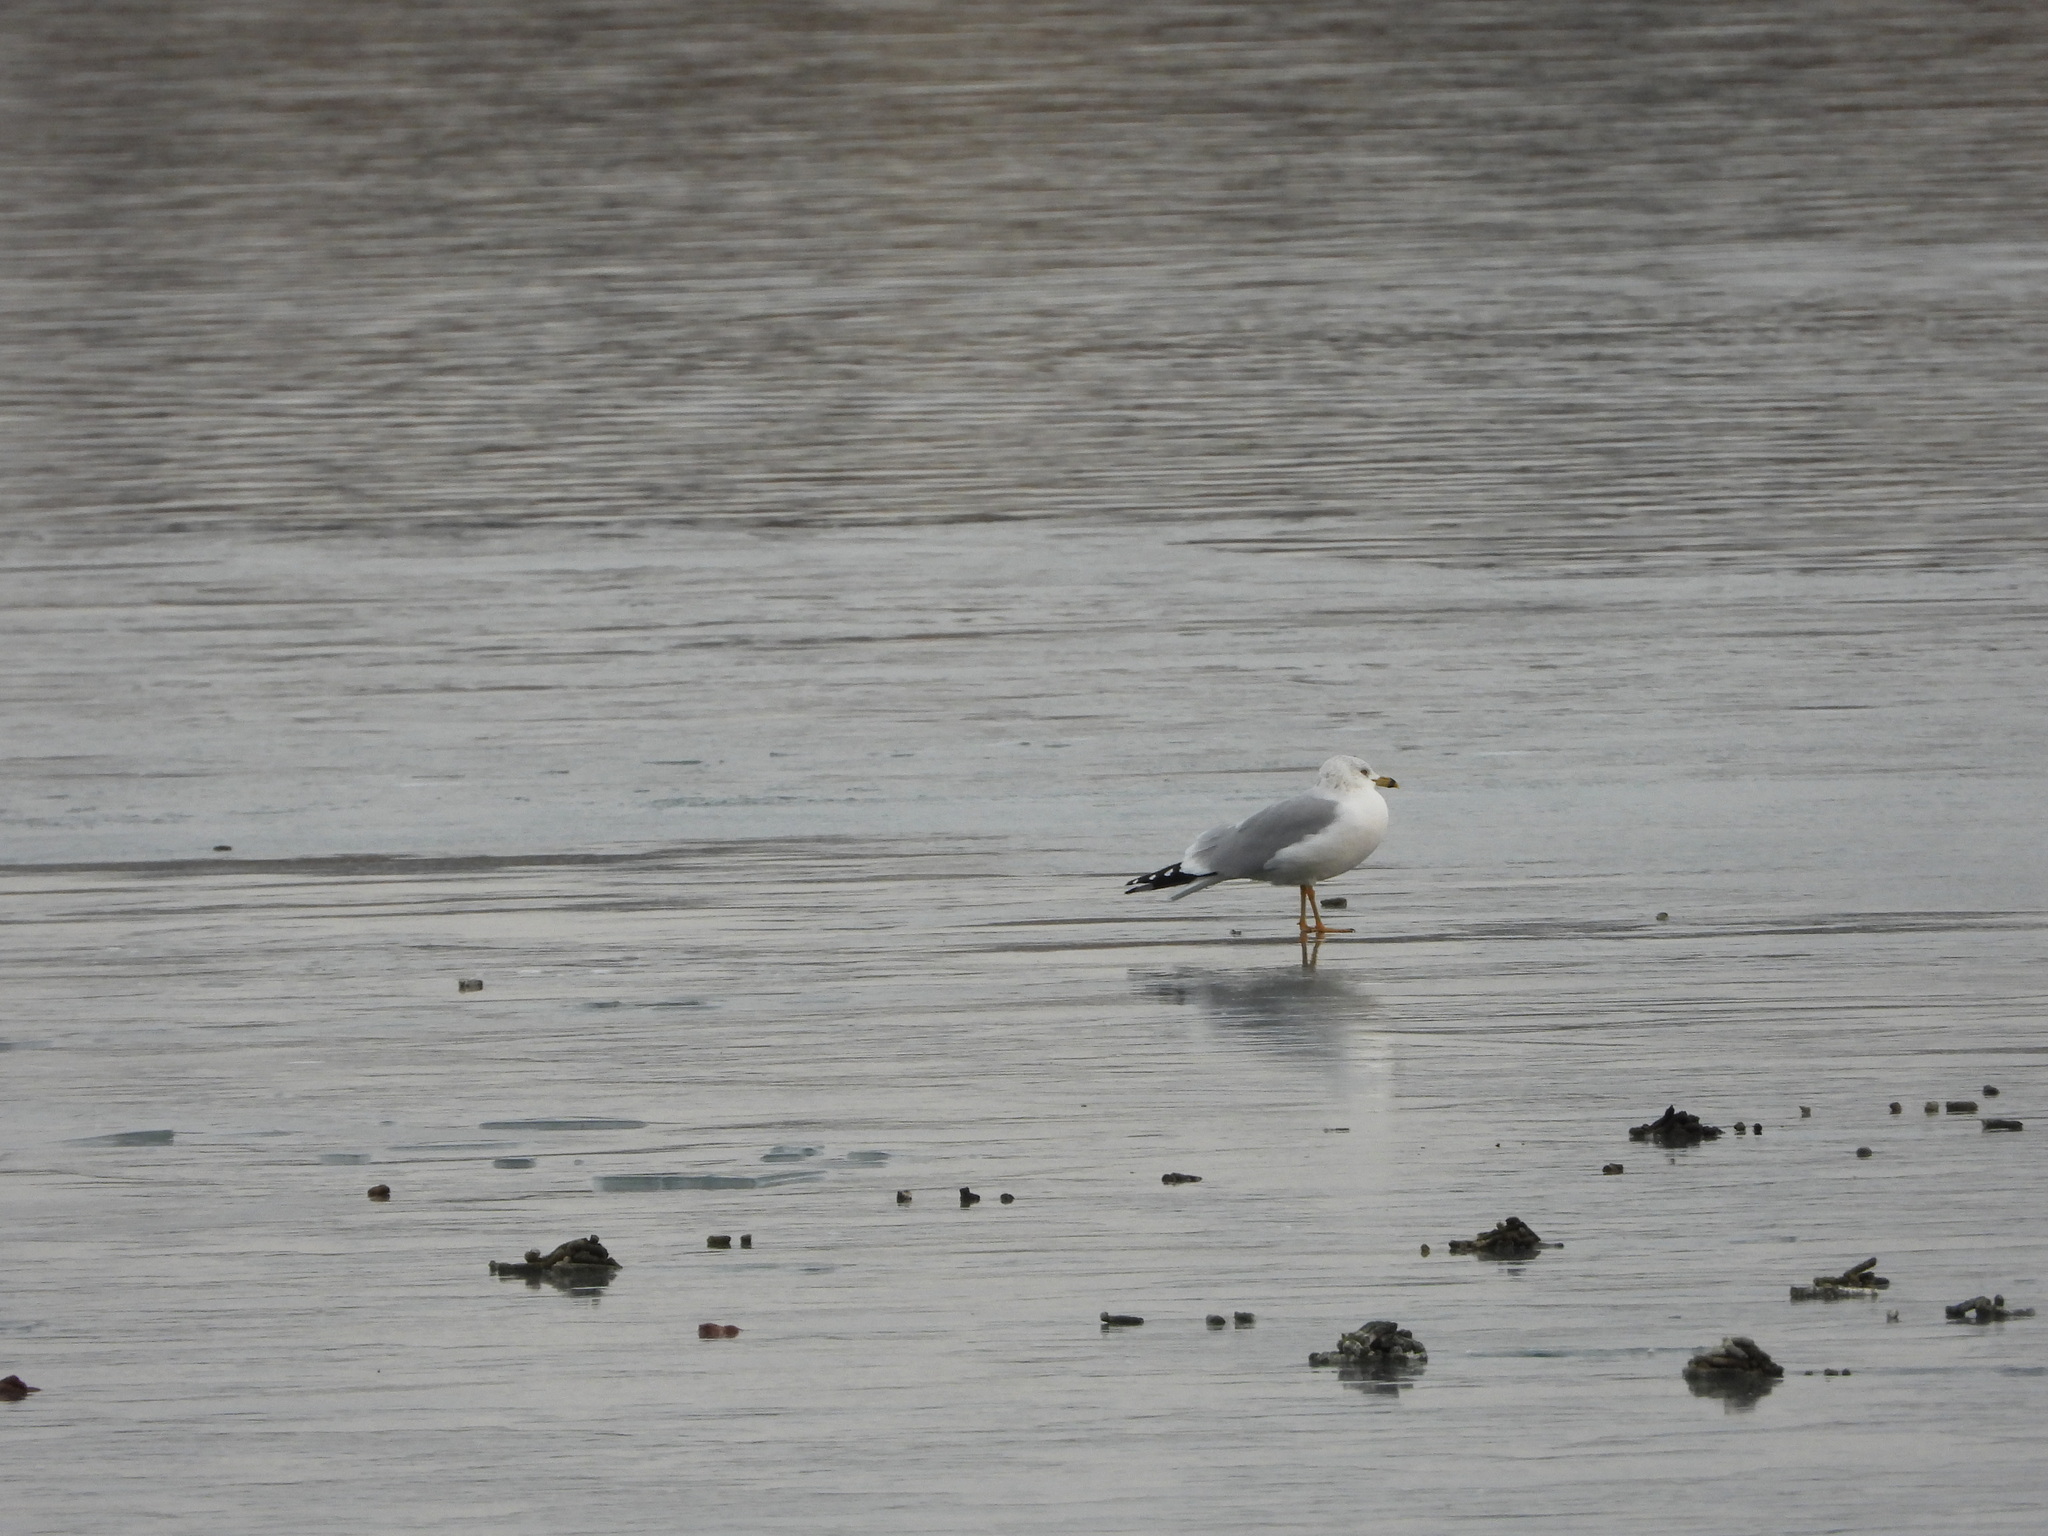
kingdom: Animalia
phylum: Chordata
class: Aves
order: Charadriiformes
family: Laridae
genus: Larus
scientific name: Larus delawarensis
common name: Ring-billed gull
